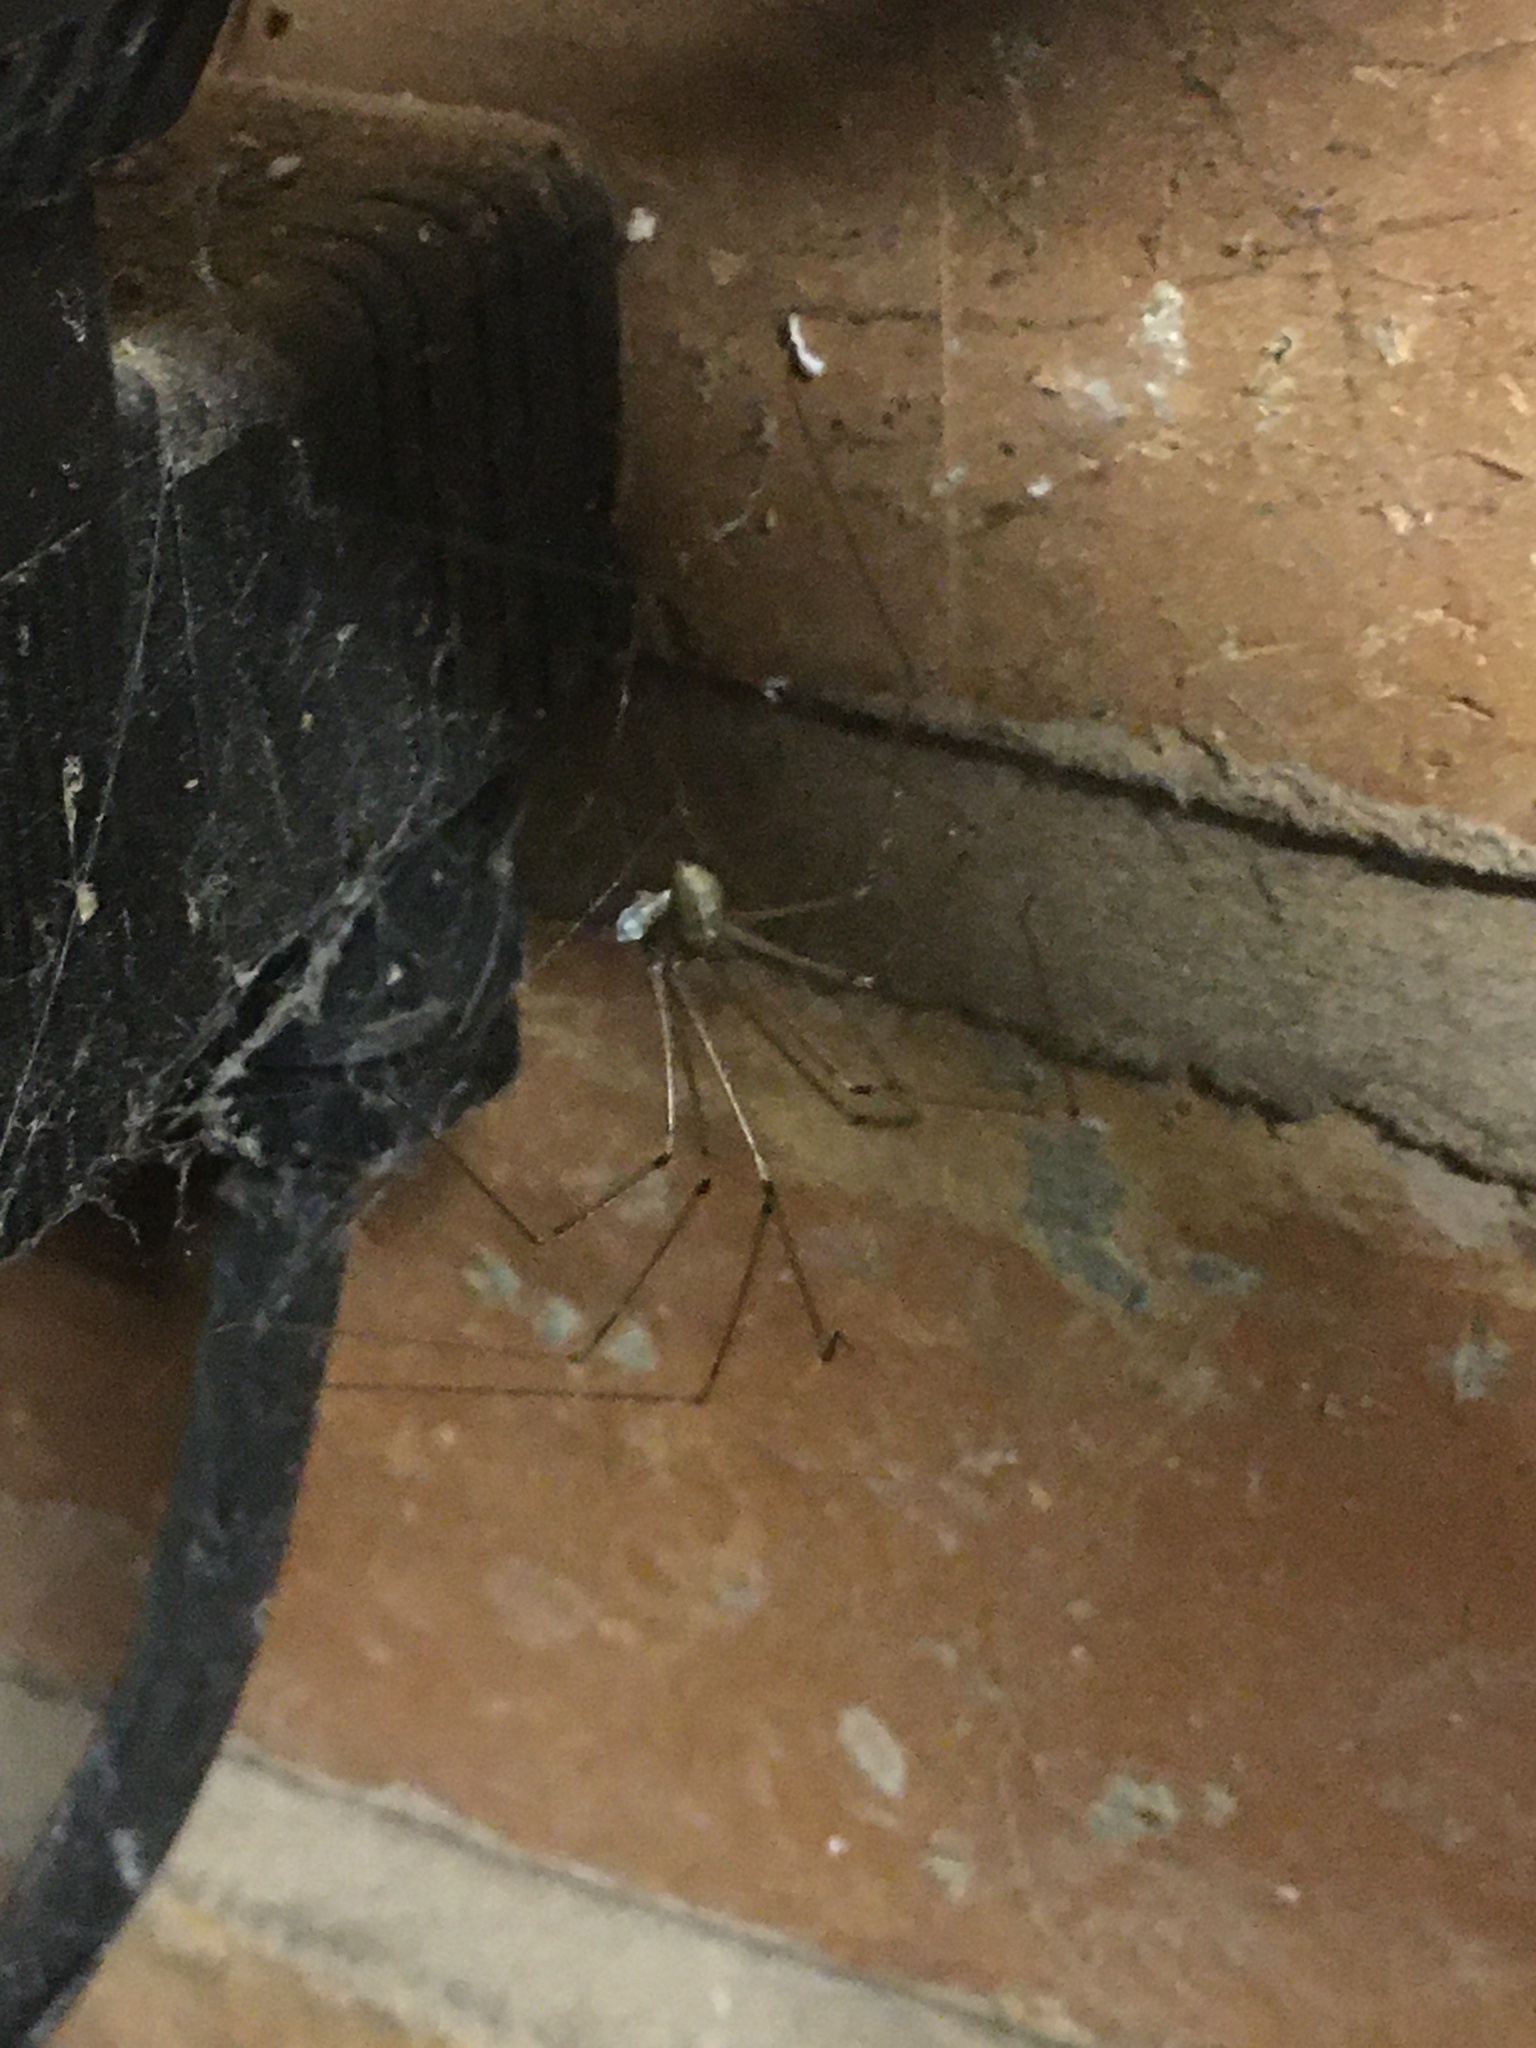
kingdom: Animalia
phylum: Arthropoda
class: Arachnida
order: Araneae
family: Pholcidae
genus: Pholcus
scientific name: Pholcus phalangioides
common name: Longbodied cellar spider
